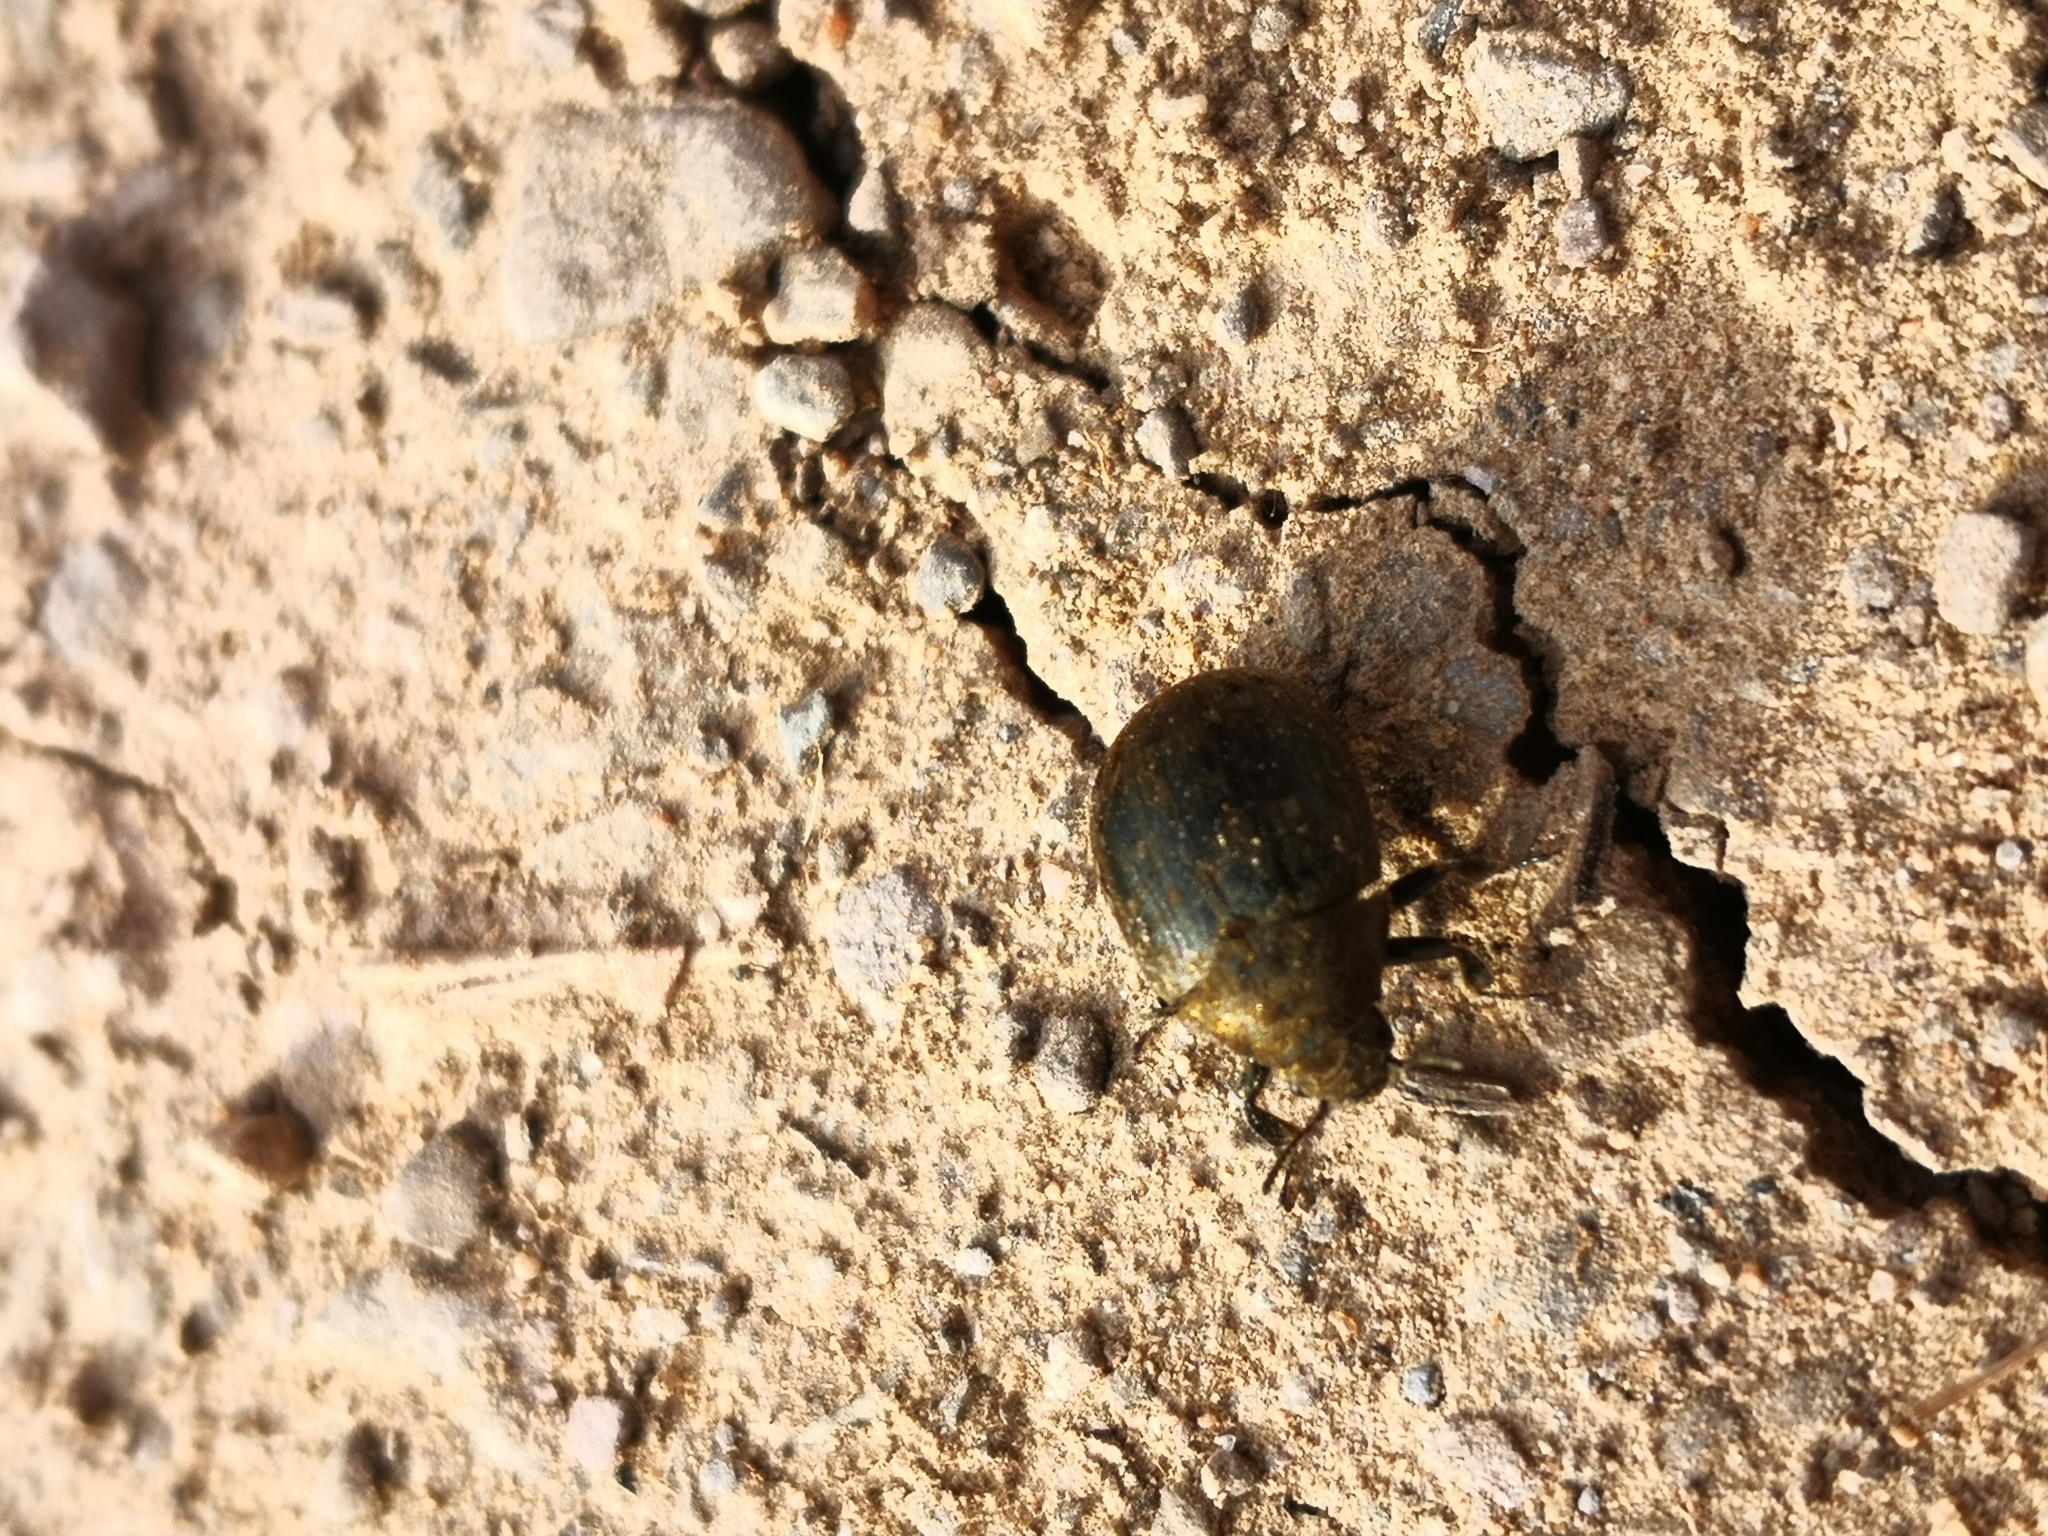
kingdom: Animalia
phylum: Arthropoda
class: Insecta
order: Coleoptera
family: Byrrhidae
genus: Byrrhus
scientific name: Byrrhus pilula
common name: Pill beetle
